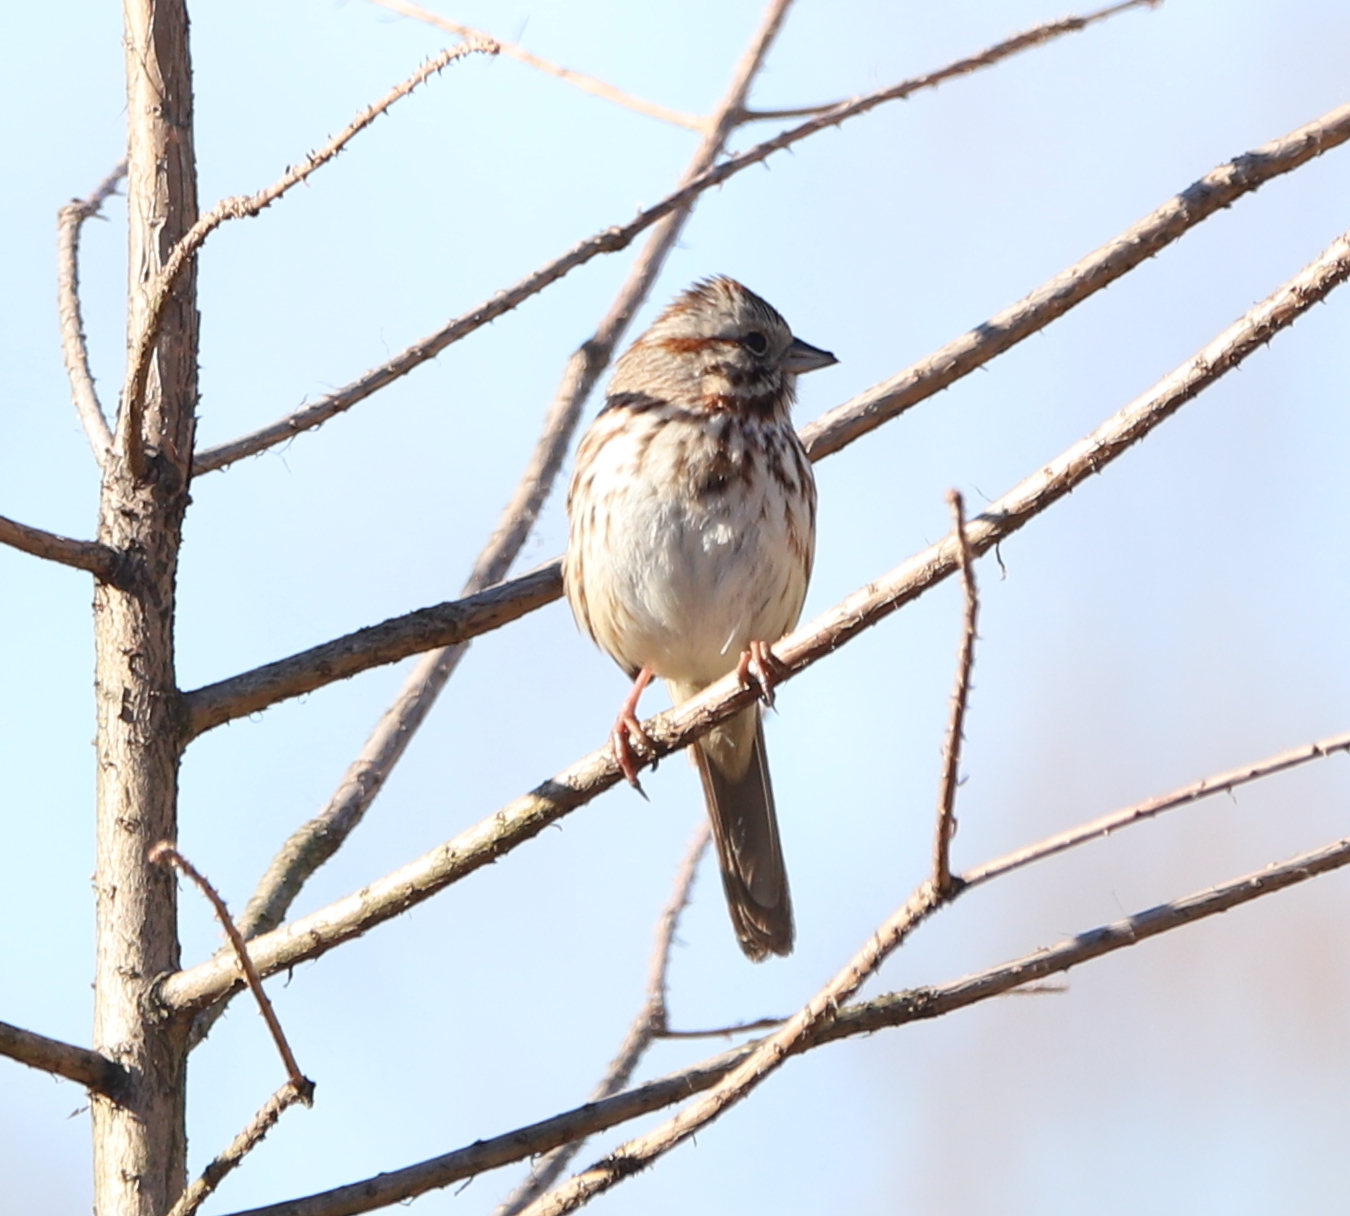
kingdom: Animalia
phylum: Chordata
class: Aves
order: Passeriformes
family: Passerellidae
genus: Melospiza
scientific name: Melospiza melodia
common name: Song sparrow
